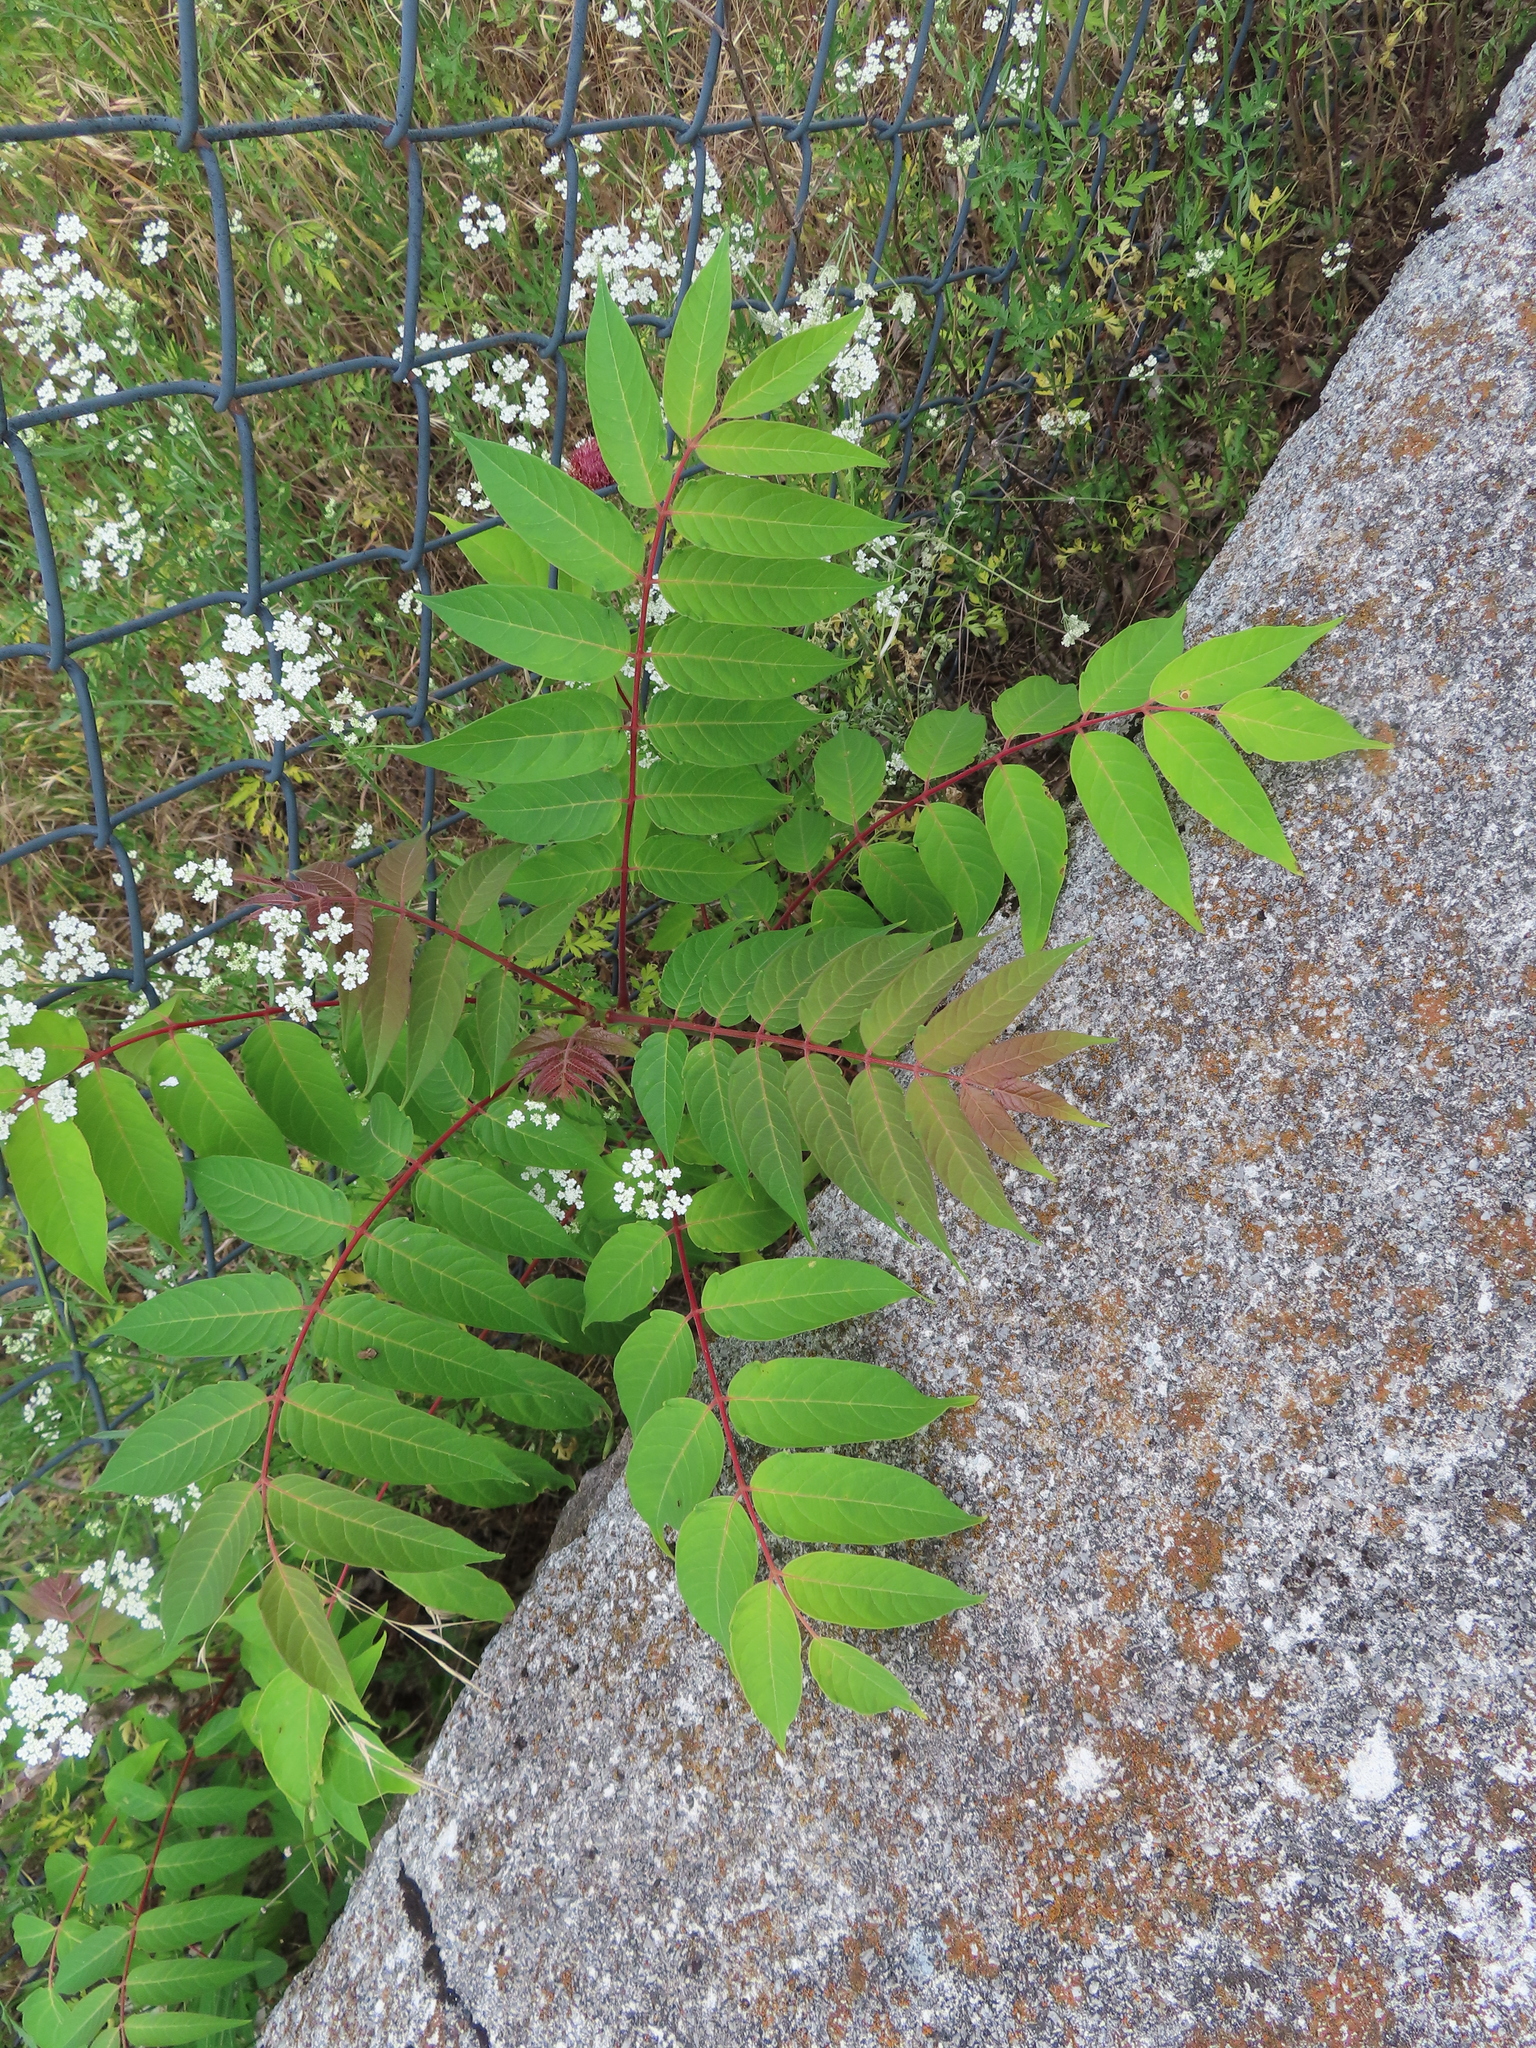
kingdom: Plantae
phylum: Tracheophyta
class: Magnoliopsida
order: Sapindales
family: Simaroubaceae
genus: Ailanthus
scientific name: Ailanthus altissima
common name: Tree-of-heaven
